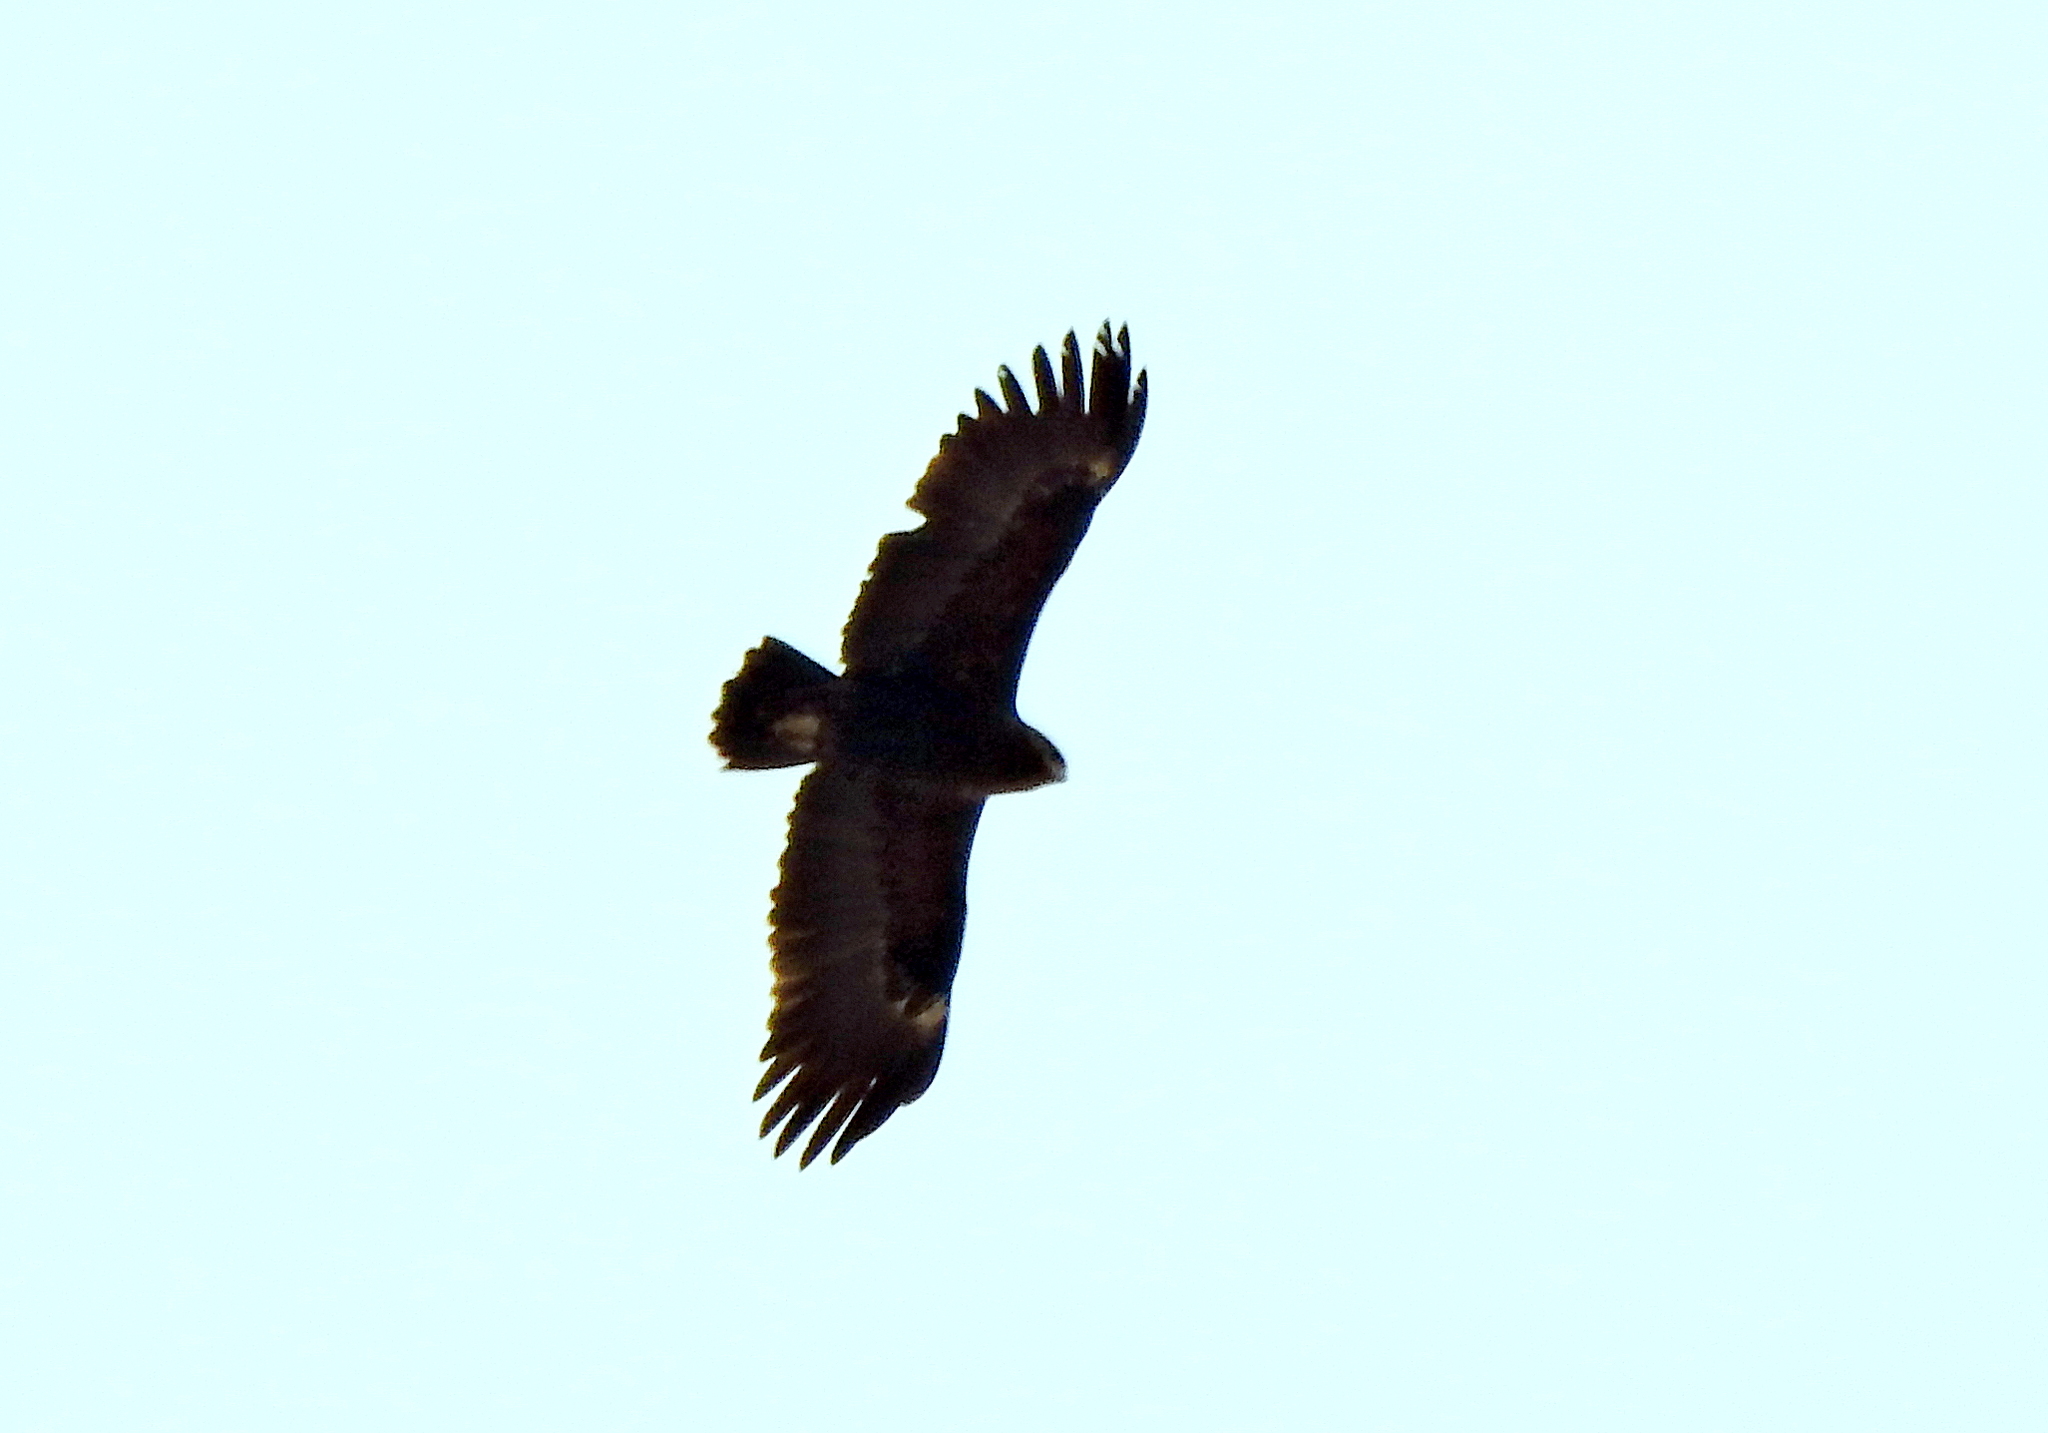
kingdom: Animalia
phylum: Chordata
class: Aves
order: Accipitriformes
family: Accipitridae
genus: Aquila
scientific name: Aquila clanga
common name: Greater spotted eagle
